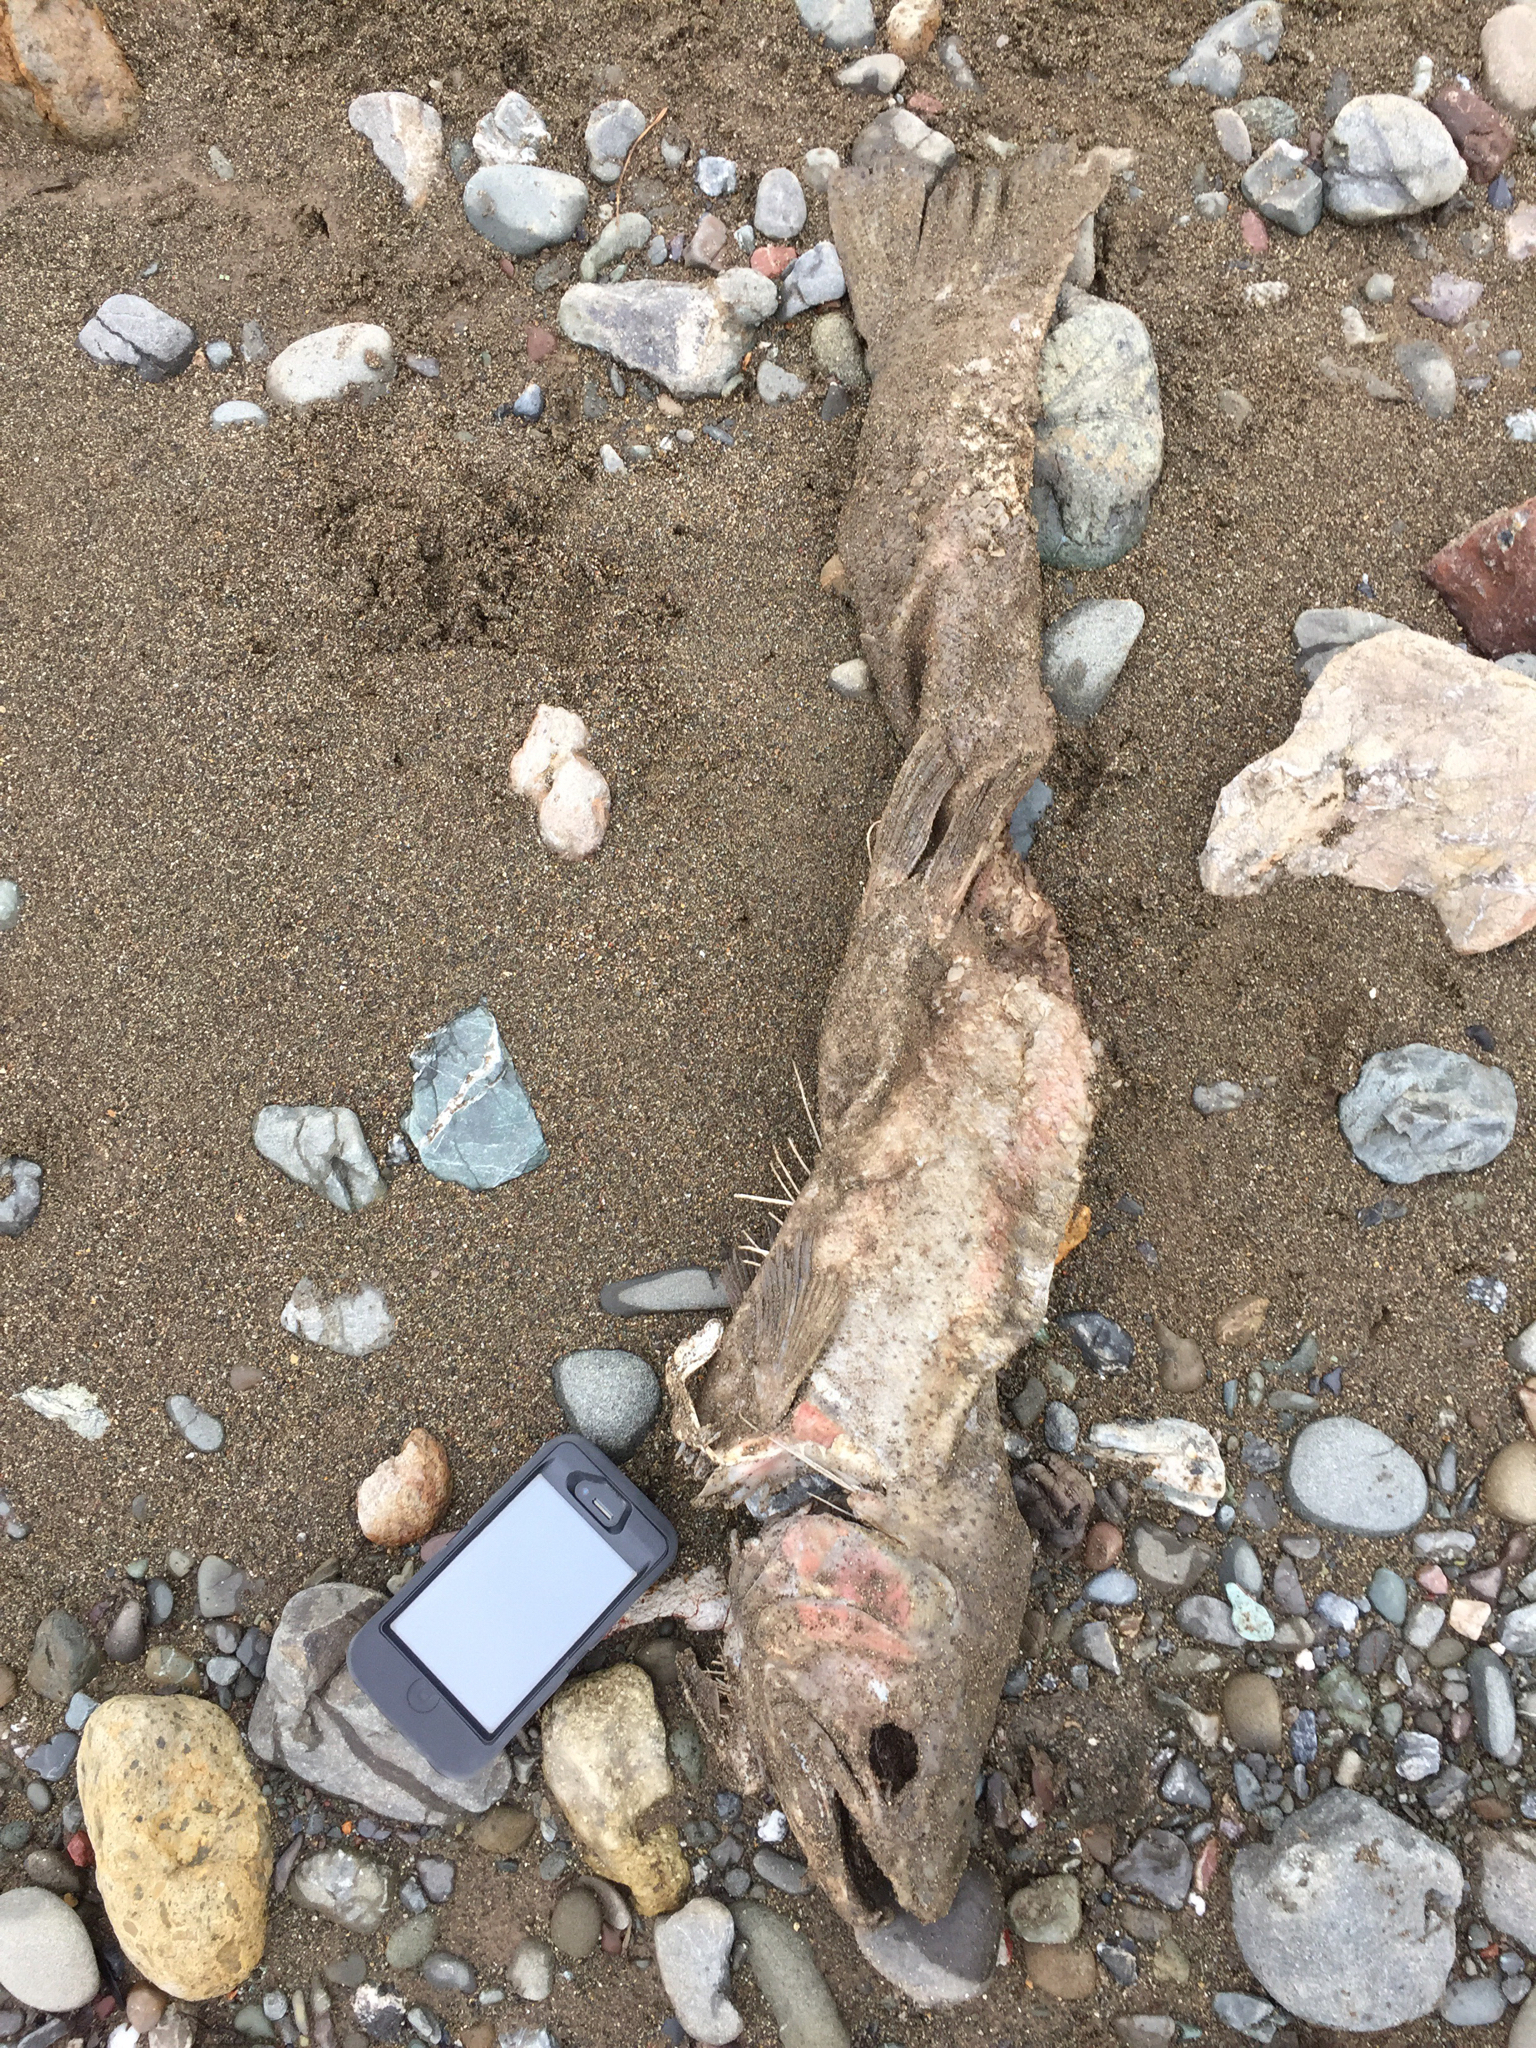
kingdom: Animalia
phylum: Chordata
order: Salmoniformes
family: Salmonidae
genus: Oncorhynchus
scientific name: Oncorhynchus mykiss
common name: Rainbow trout
